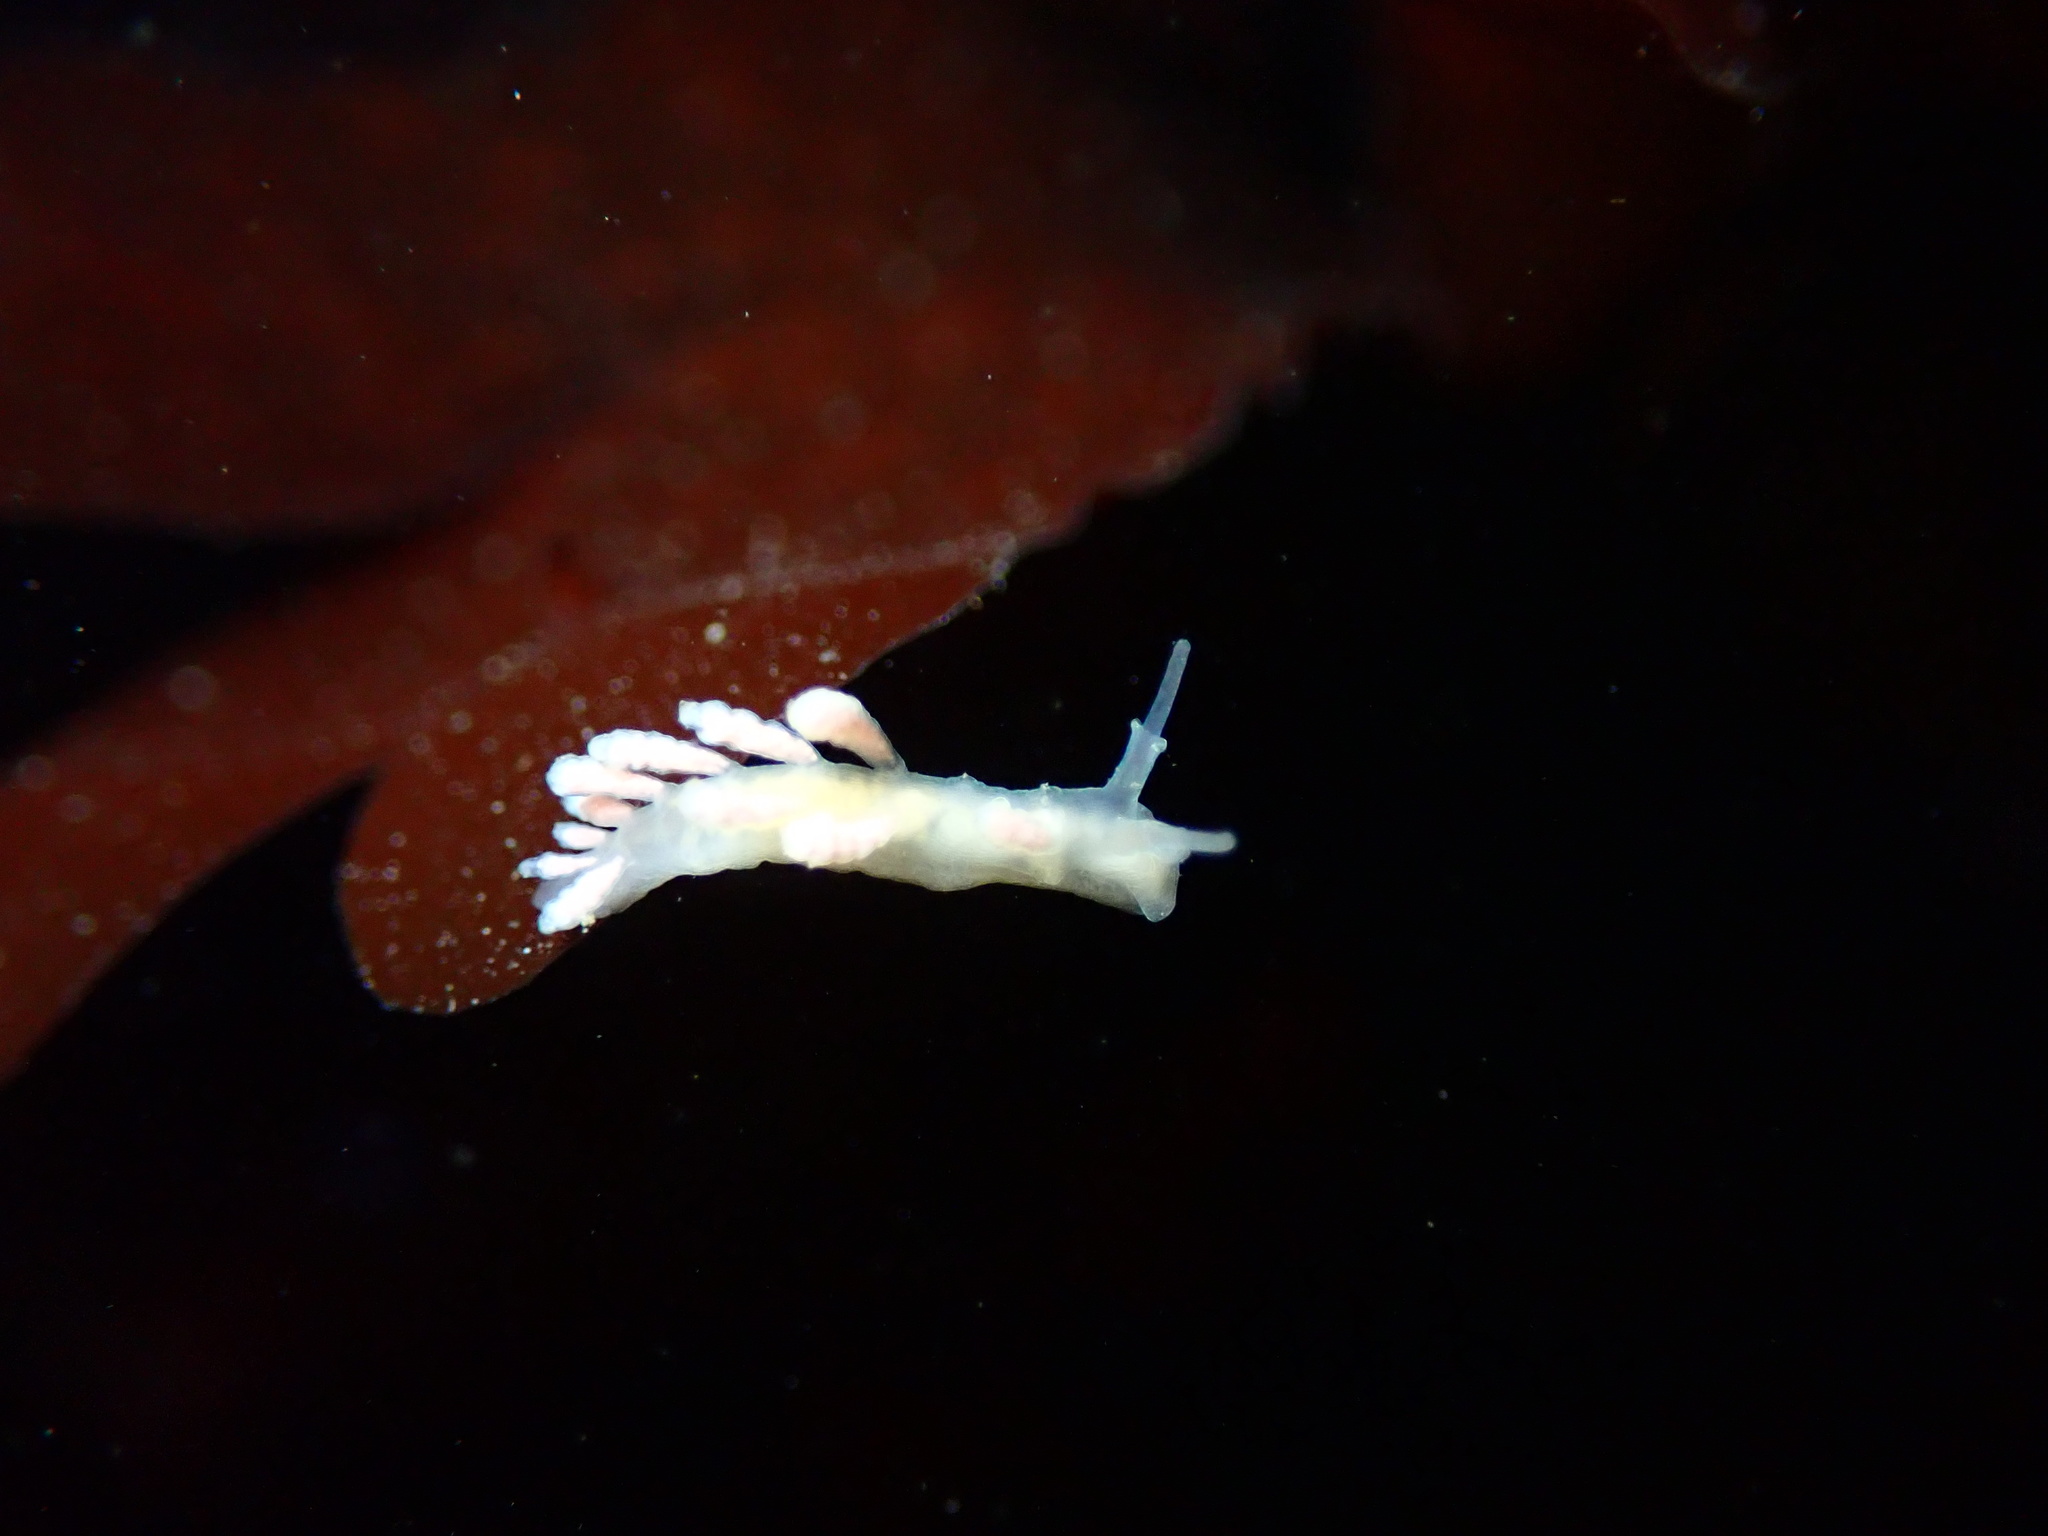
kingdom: Animalia
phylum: Mollusca
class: Gastropoda
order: Nudibranchia
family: Dotidae
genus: Doto
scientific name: Doto amyra
